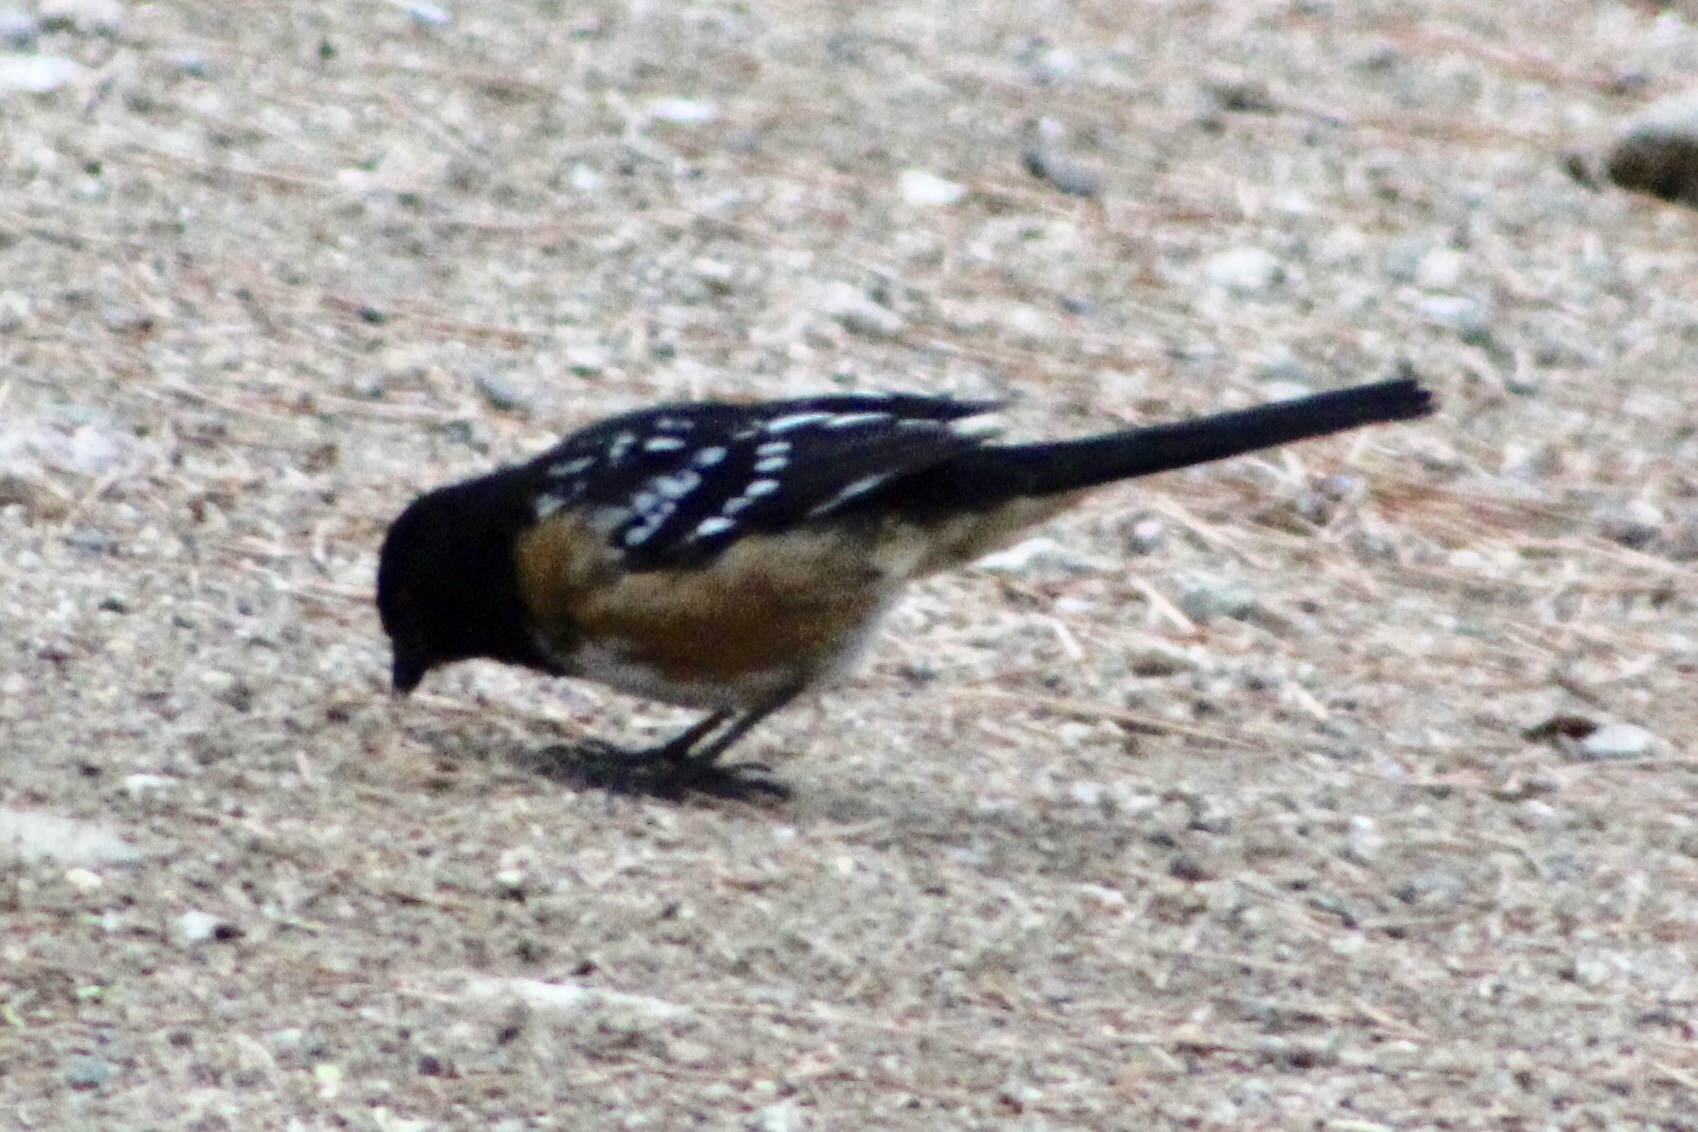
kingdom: Animalia
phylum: Chordata
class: Aves
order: Passeriformes
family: Passerellidae
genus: Pipilo
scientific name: Pipilo maculatus
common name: Spotted towhee
